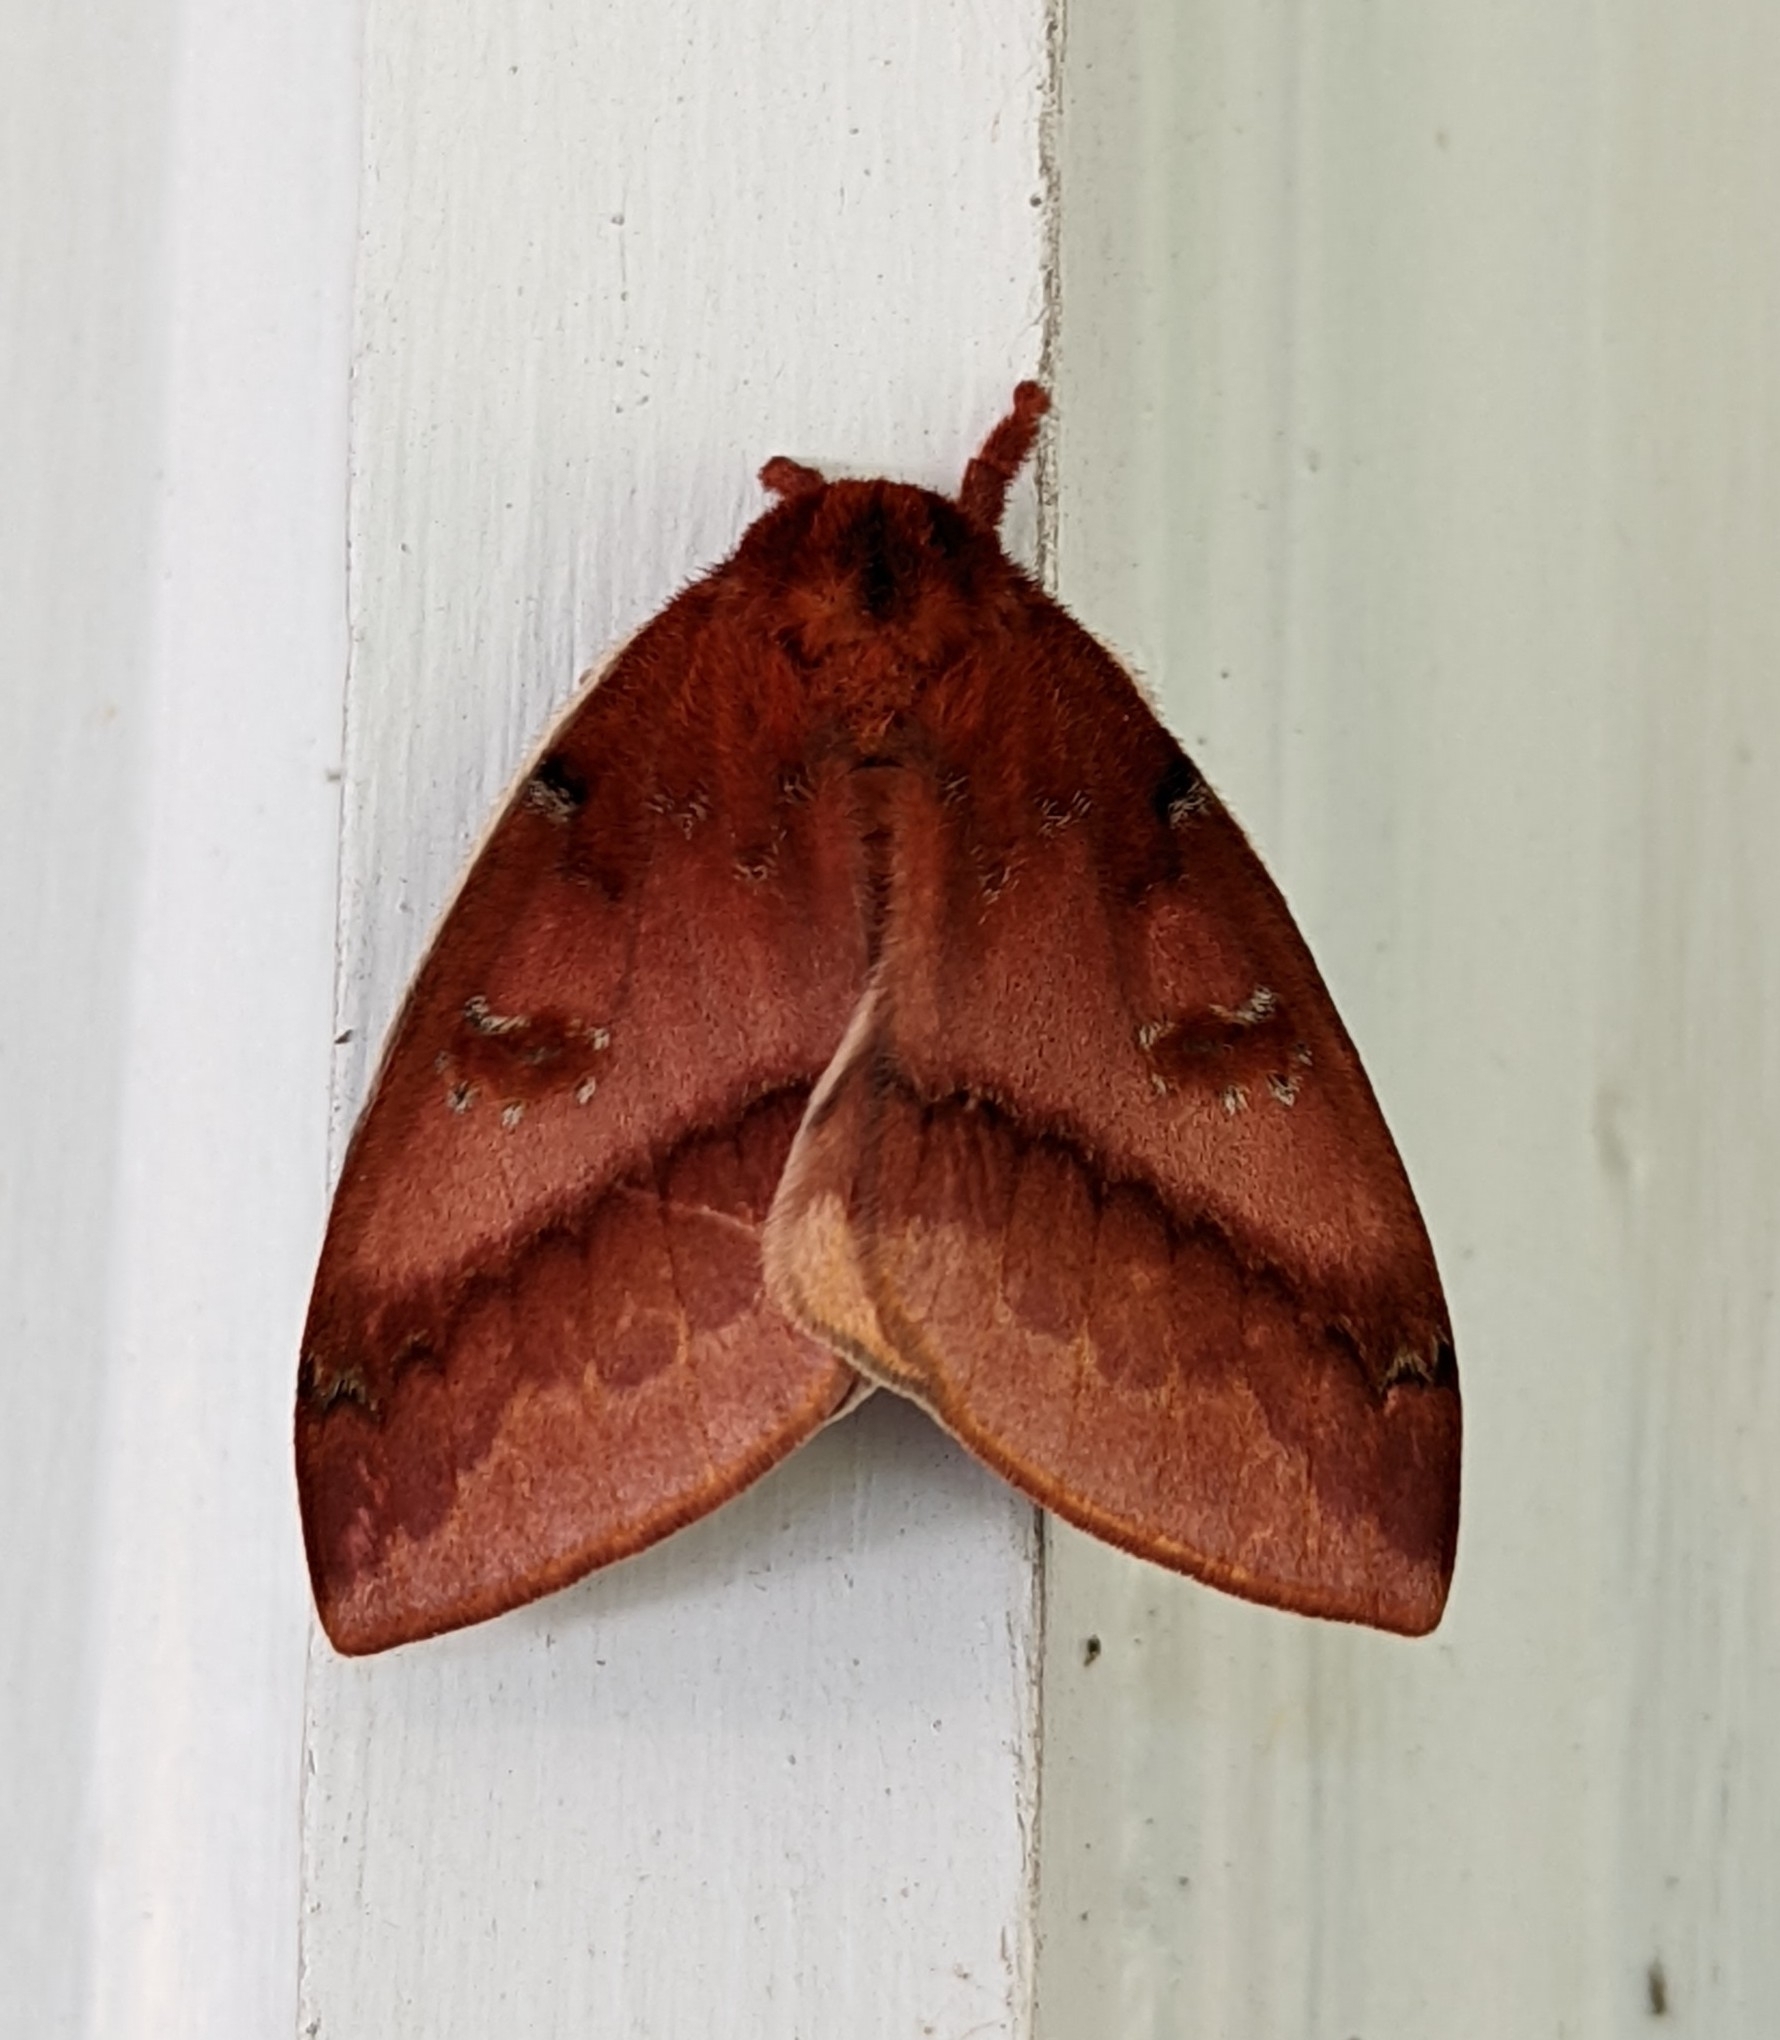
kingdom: Animalia
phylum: Arthropoda
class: Insecta
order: Lepidoptera
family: Saturniidae
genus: Automeris
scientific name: Automeris io
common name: Io moth
